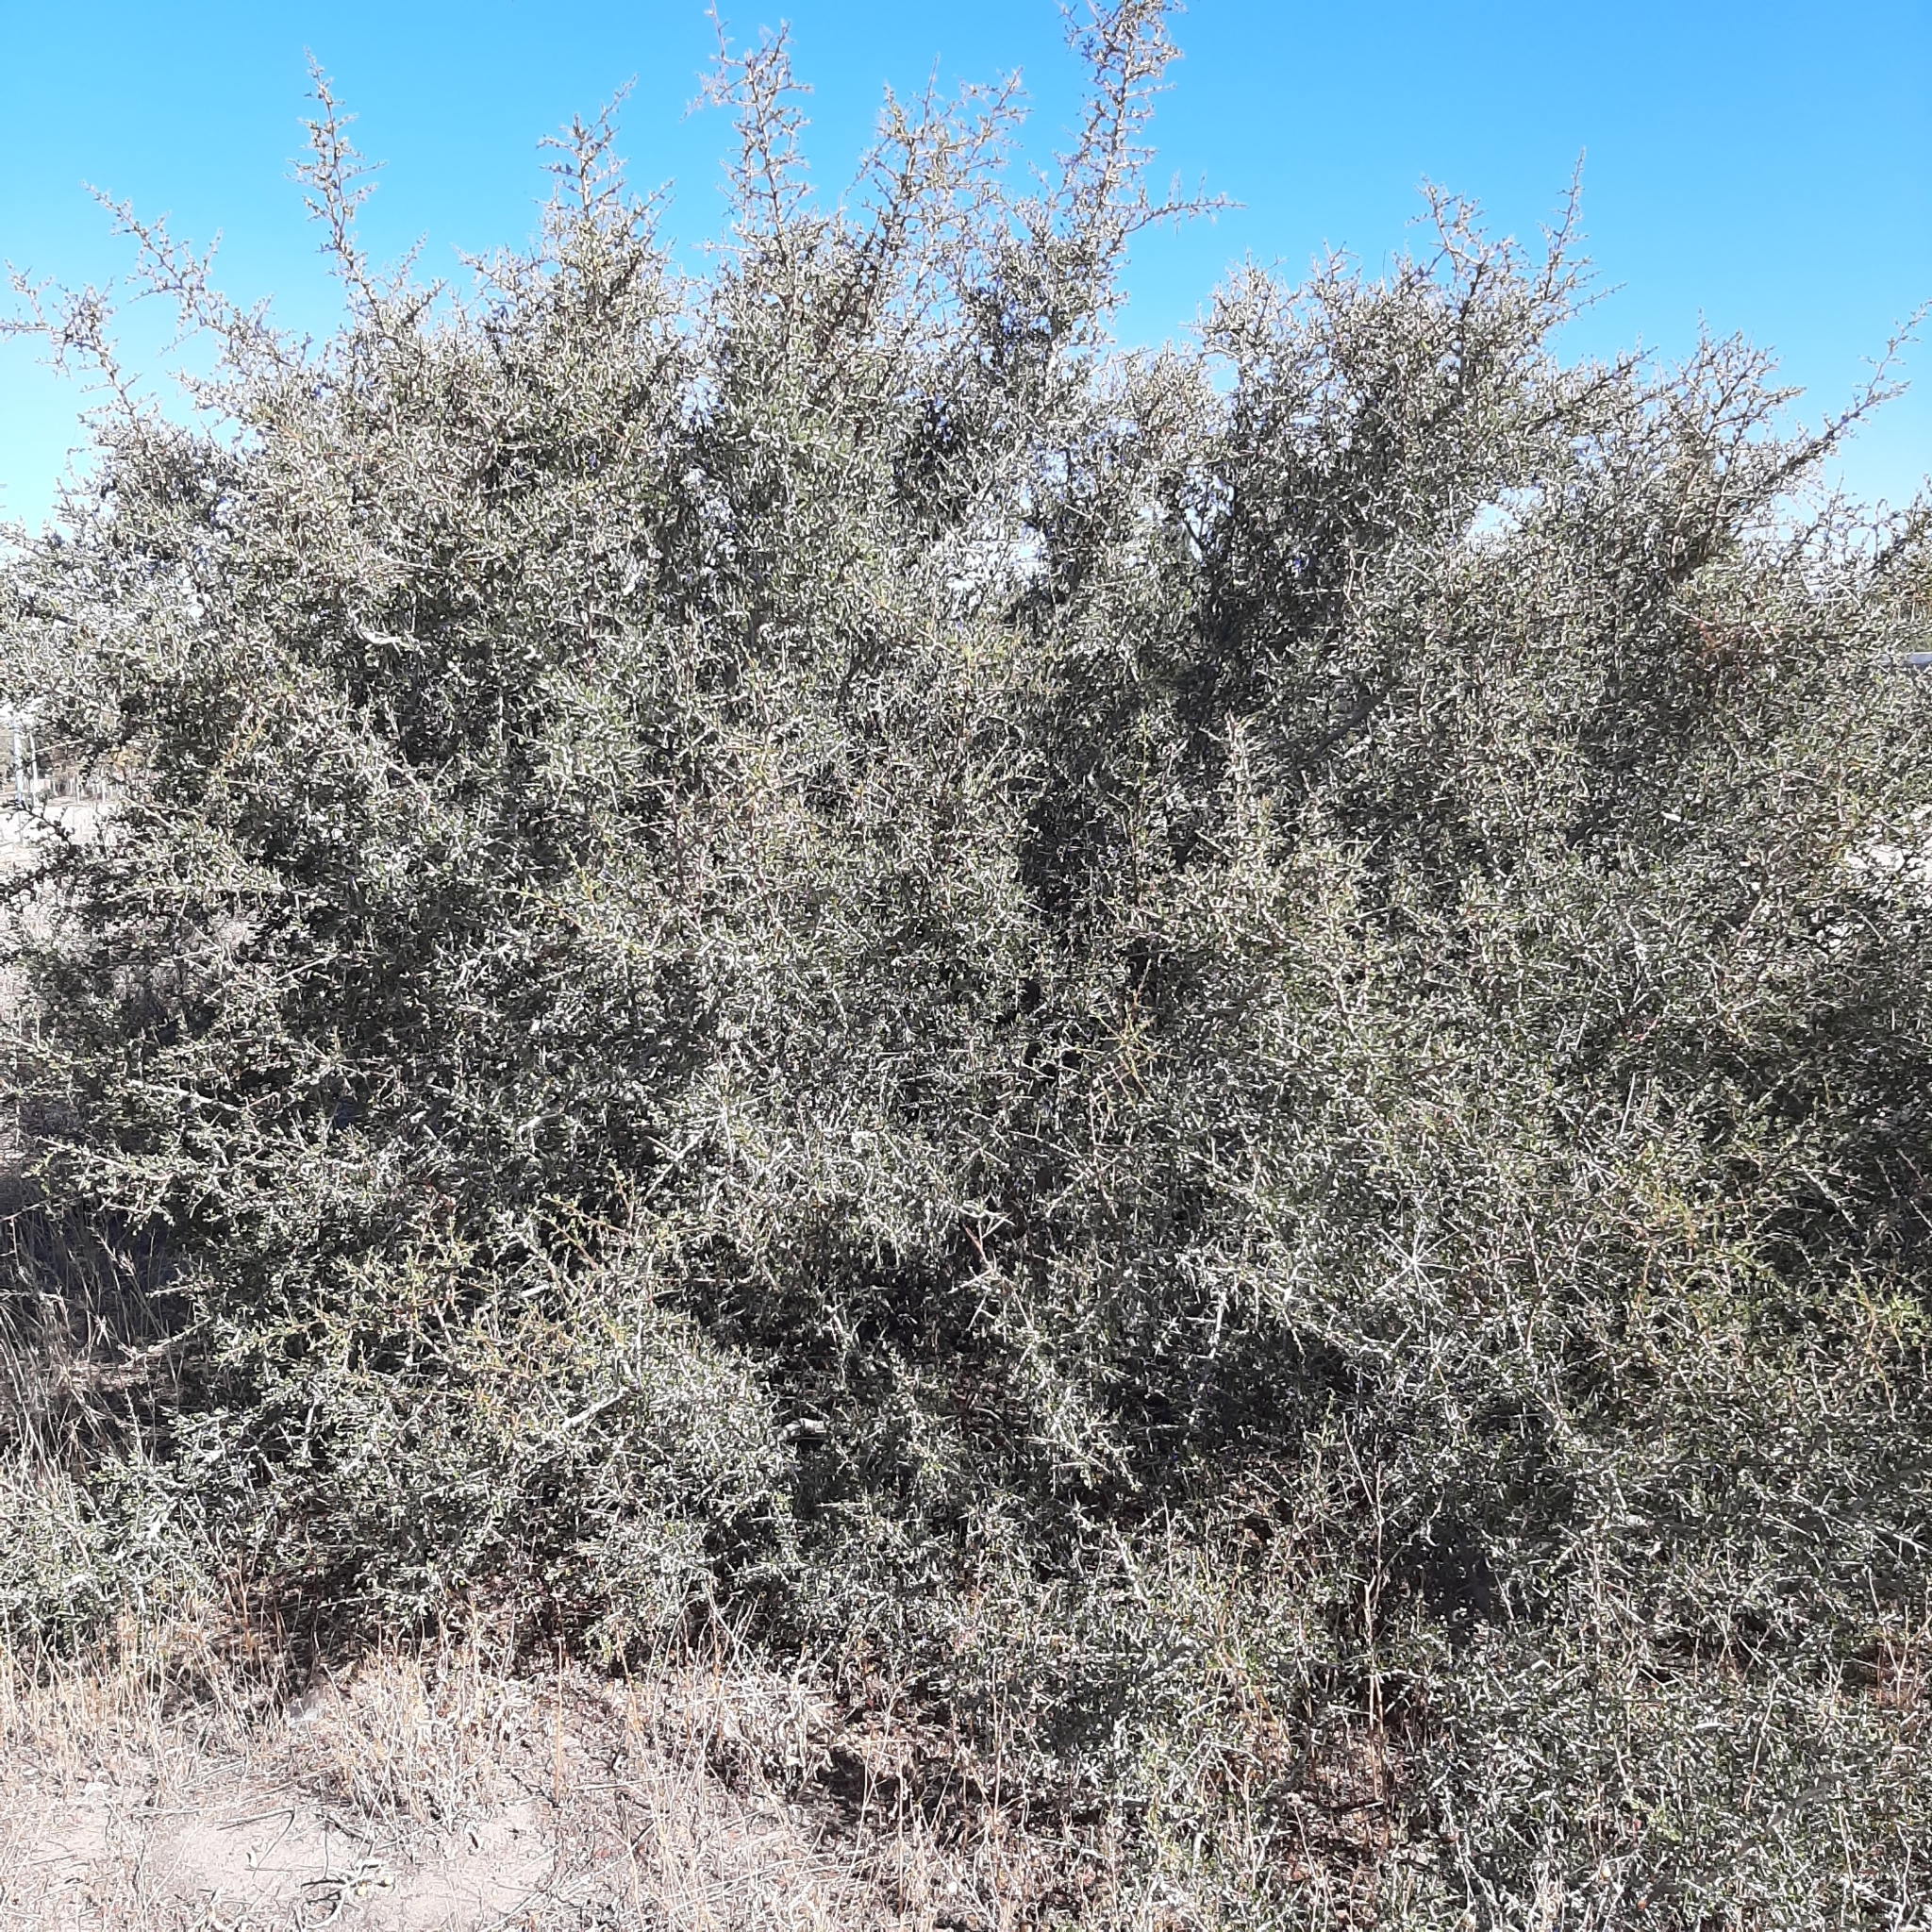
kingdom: Plantae
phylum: Tracheophyta
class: Magnoliopsida
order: Sapindales
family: Anacardiaceae
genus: Schinus
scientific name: Schinus johnstonii
